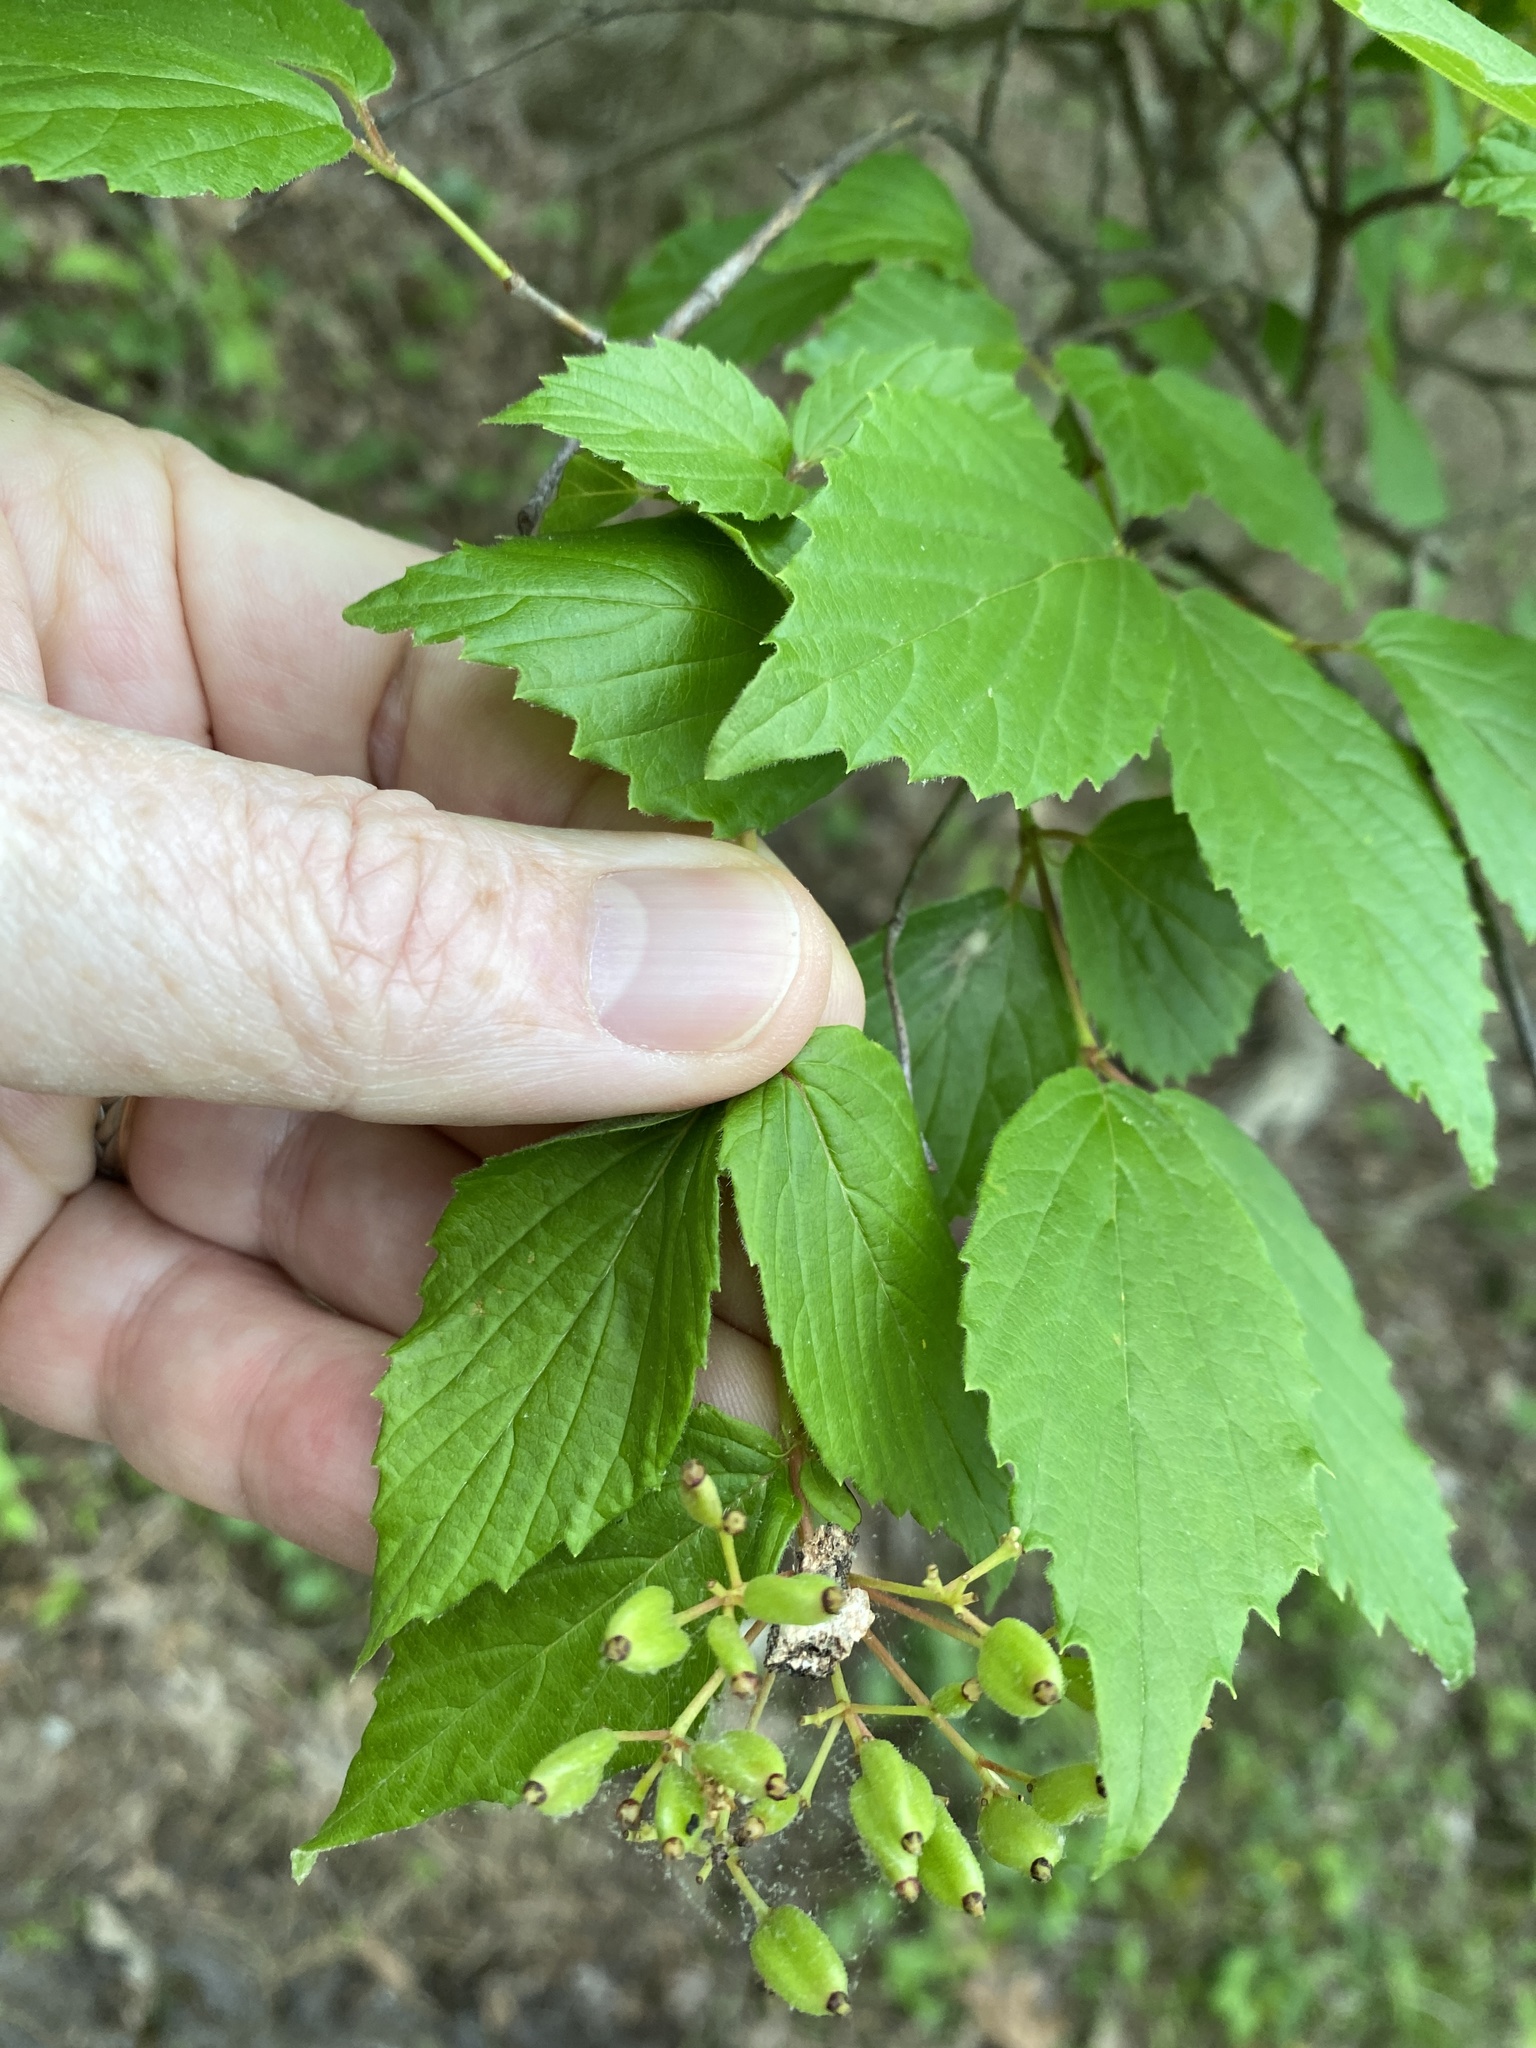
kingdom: Plantae
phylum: Tracheophyta
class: Magnoliopsida
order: Dipsacales
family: Viburnaceae
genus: Viburnum
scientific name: Viburnum rafinesqueanum
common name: Downy arrow-wood
